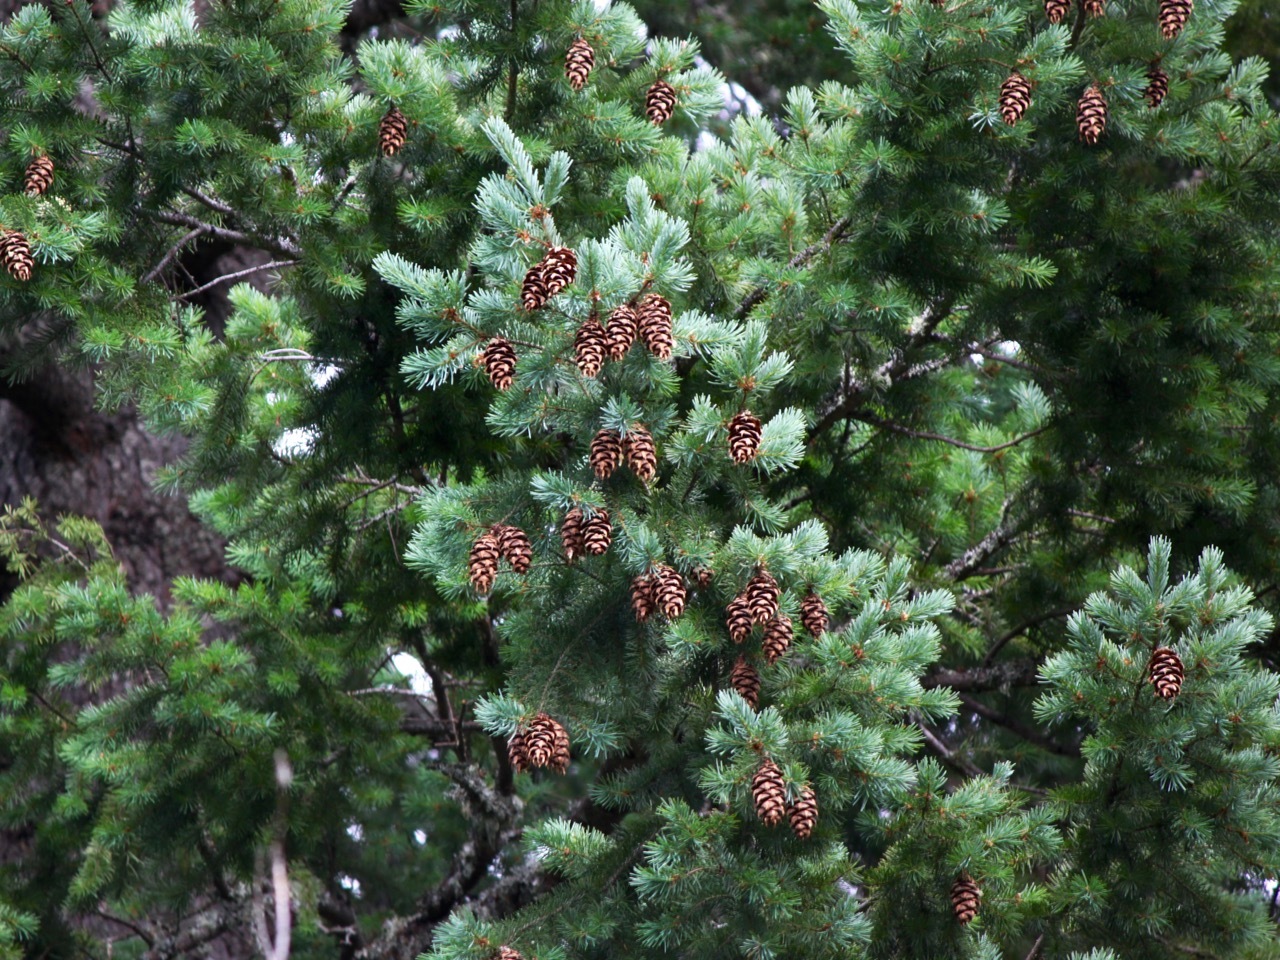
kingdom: Plantae
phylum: Tracheophyta
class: Pinopsida
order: Pinales
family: Pinaceae
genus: Pseudotsuga
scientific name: Pseudotsuga menziesii
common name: Douglas fir
